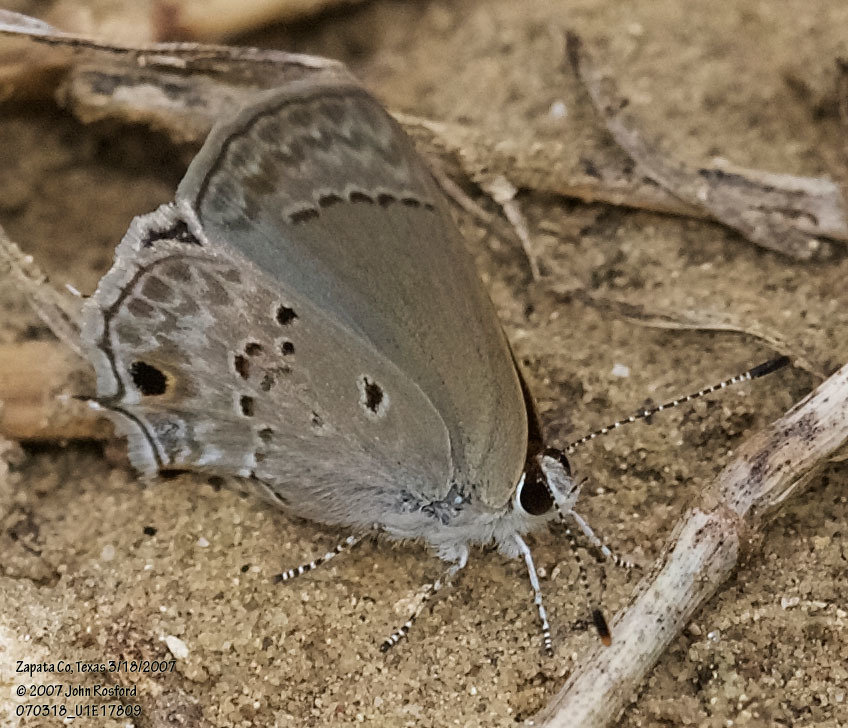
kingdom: Animalia
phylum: Arthropoda
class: Insecta
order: Lepidoptera
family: Lycaenidae
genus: Callicista
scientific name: Callicista columella
